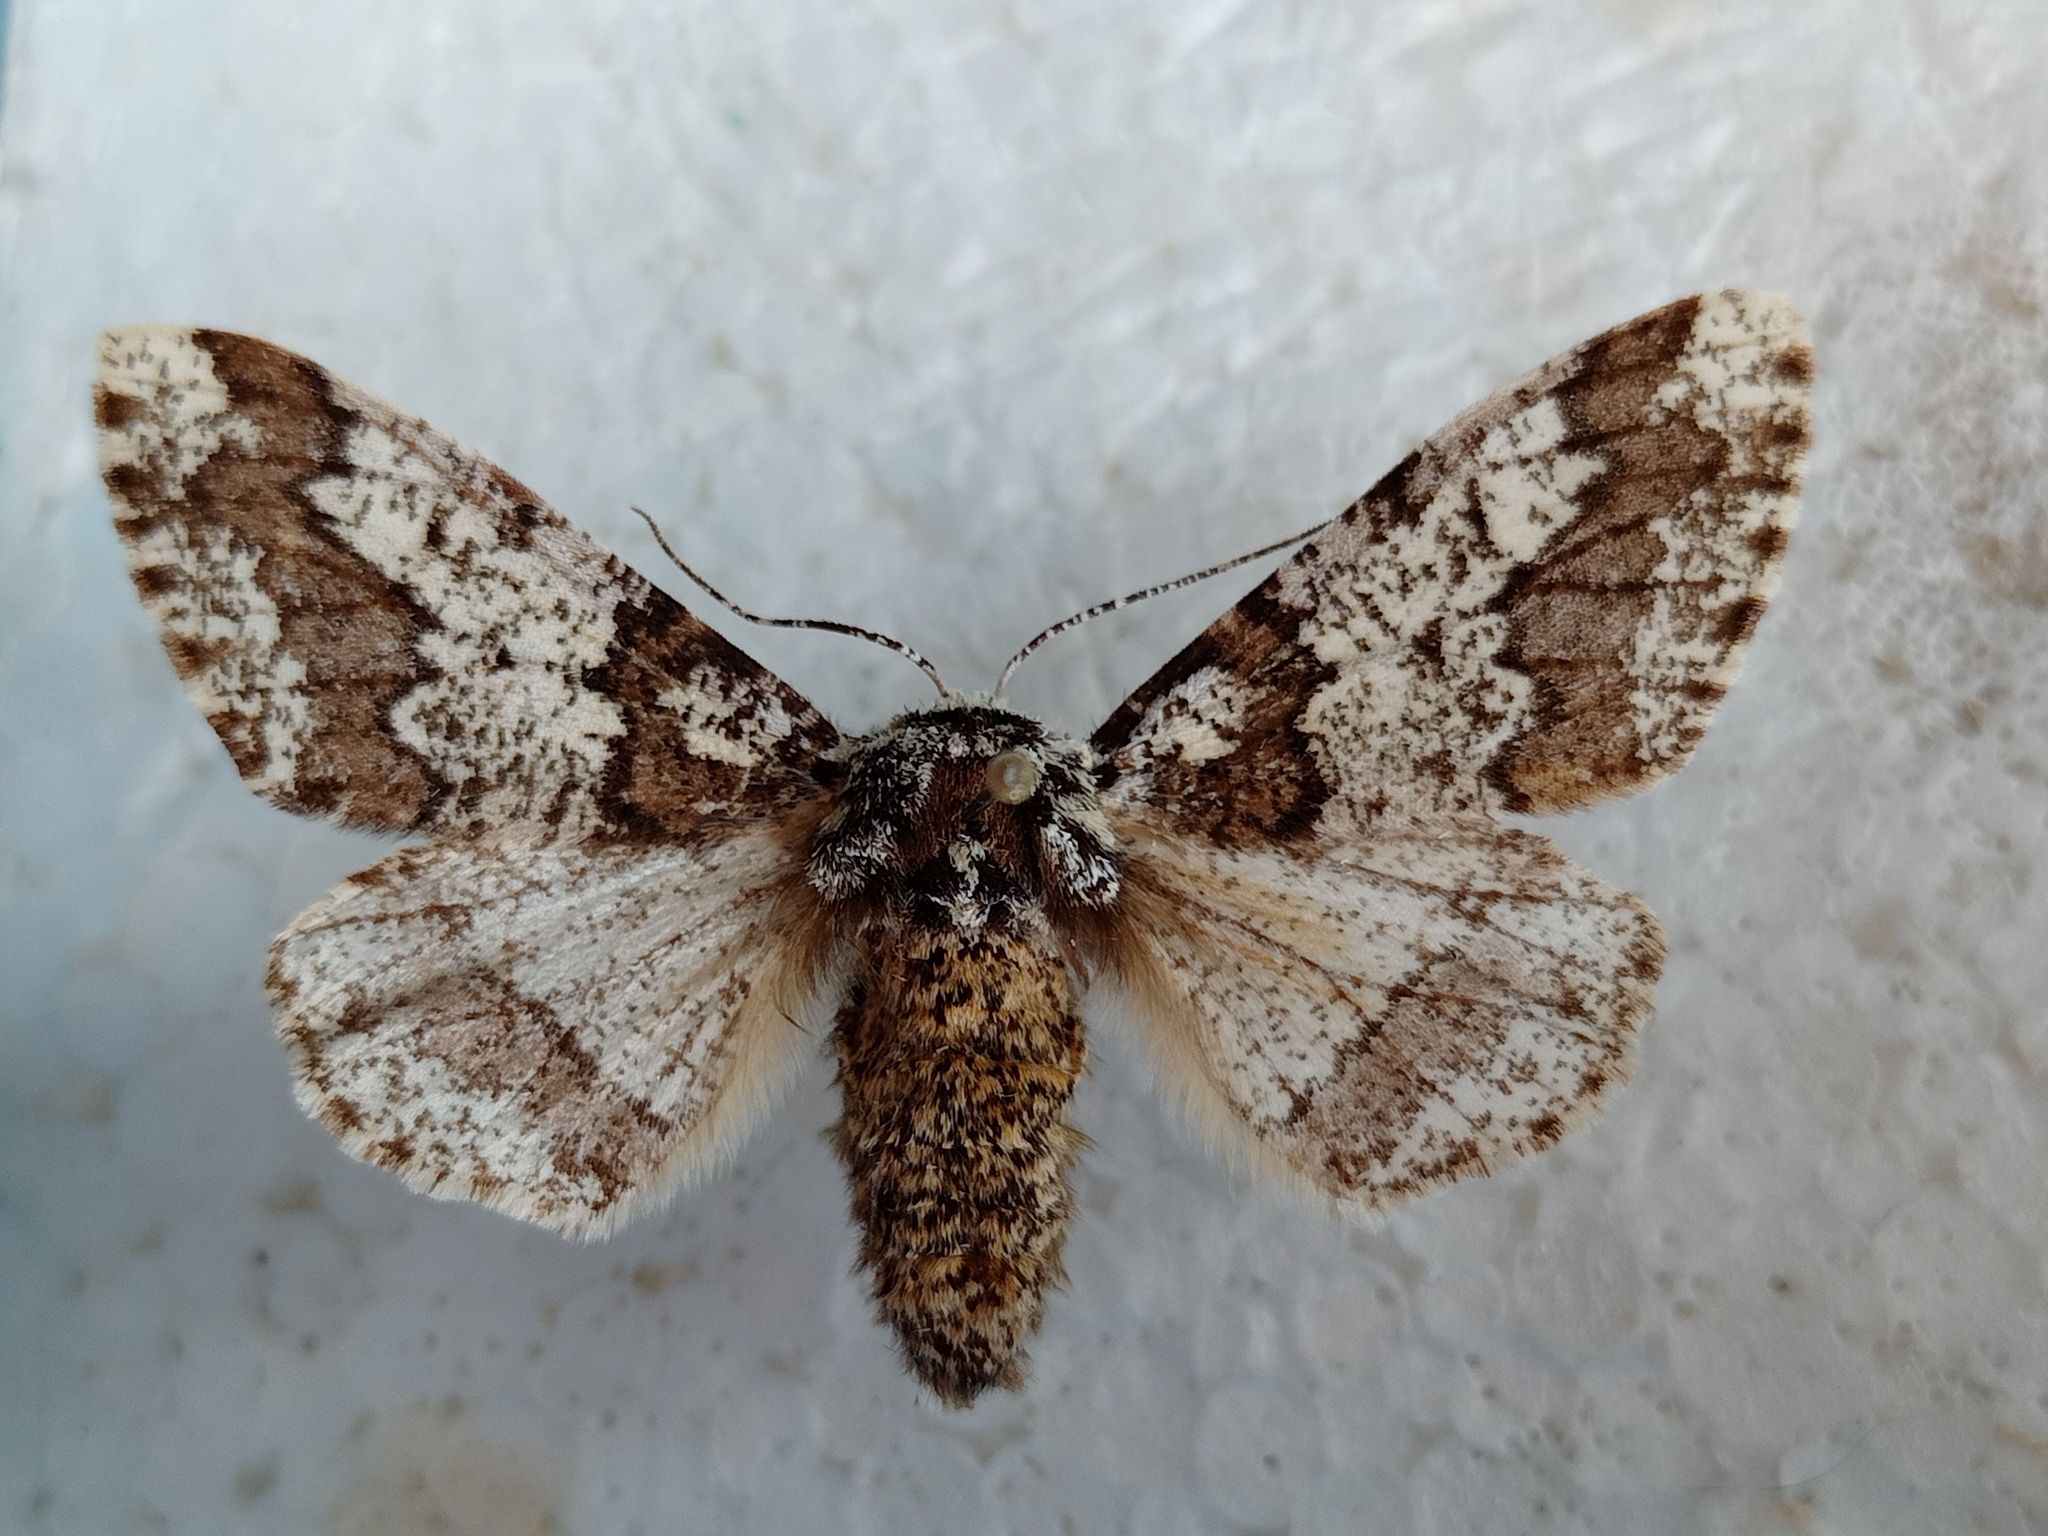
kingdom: Animalia
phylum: Arthropoda
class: Insecta
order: Lepidoptera
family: Geometridae
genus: Biston
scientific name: Biston strataria
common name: Oak beauty
